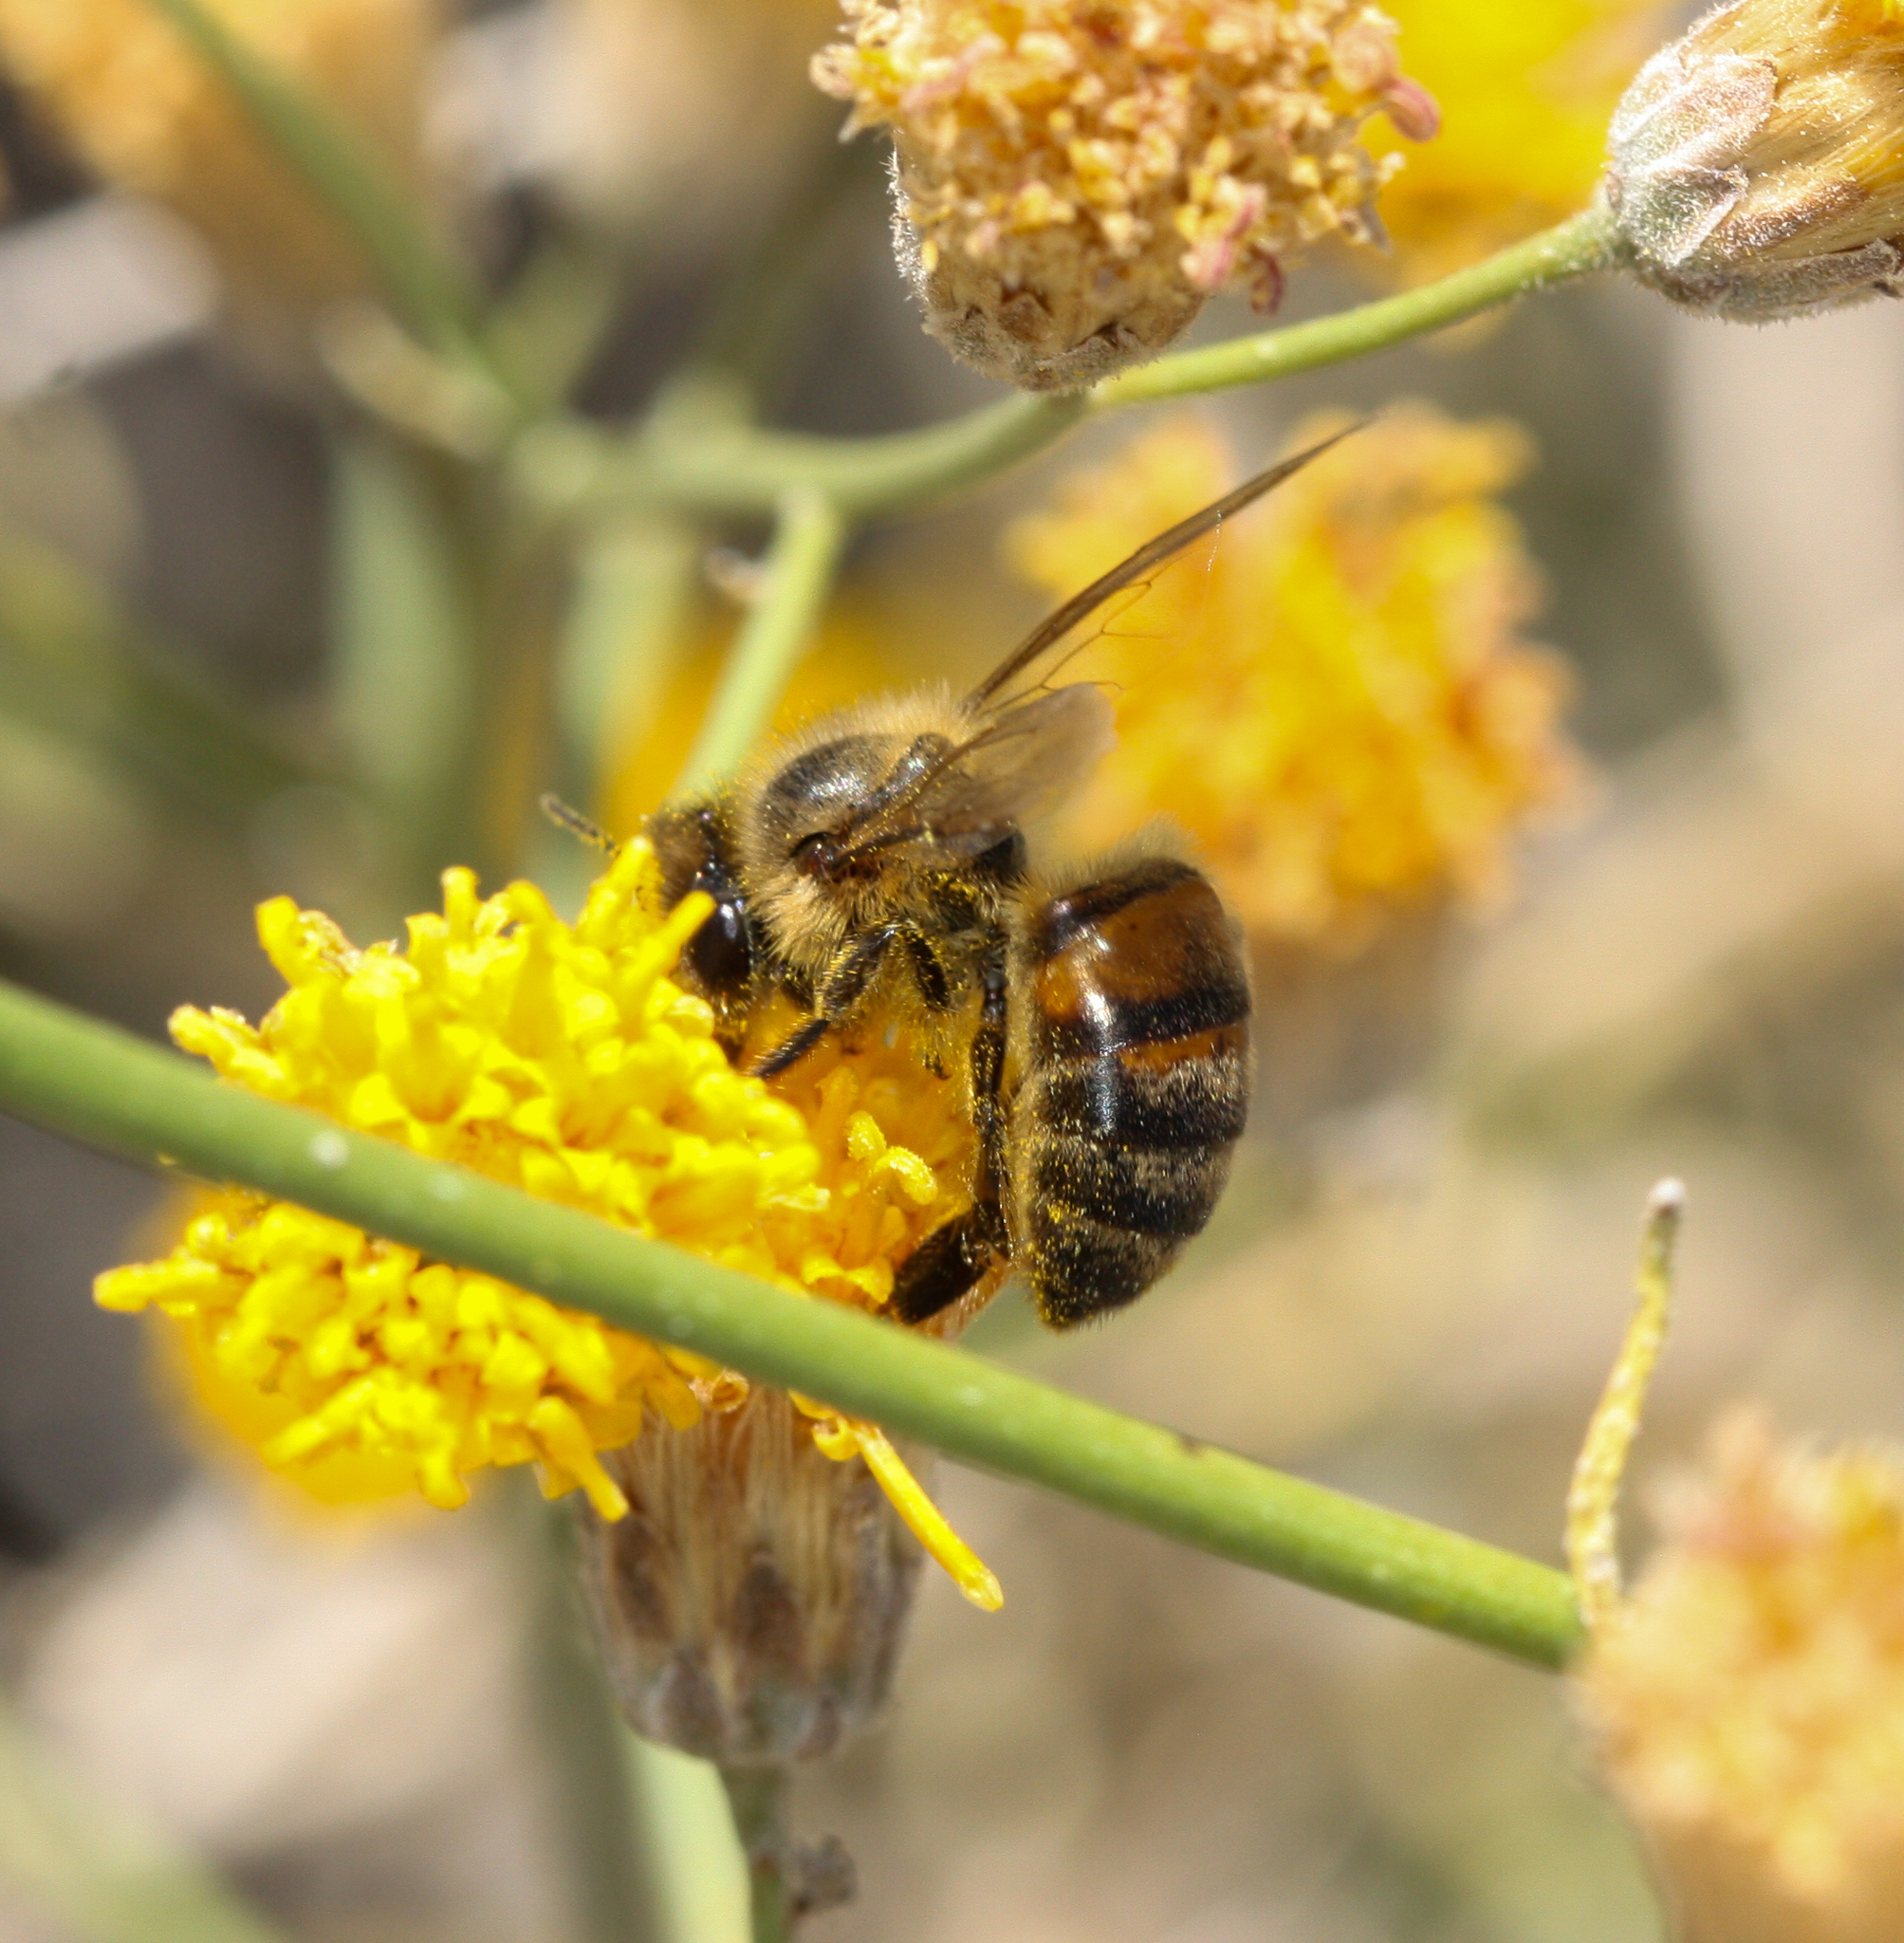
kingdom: Animalia
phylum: Arthropoda
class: Insecta
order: Hymenoptera
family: Apidae
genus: Apis
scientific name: Apis mellifera
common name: Honey bee
